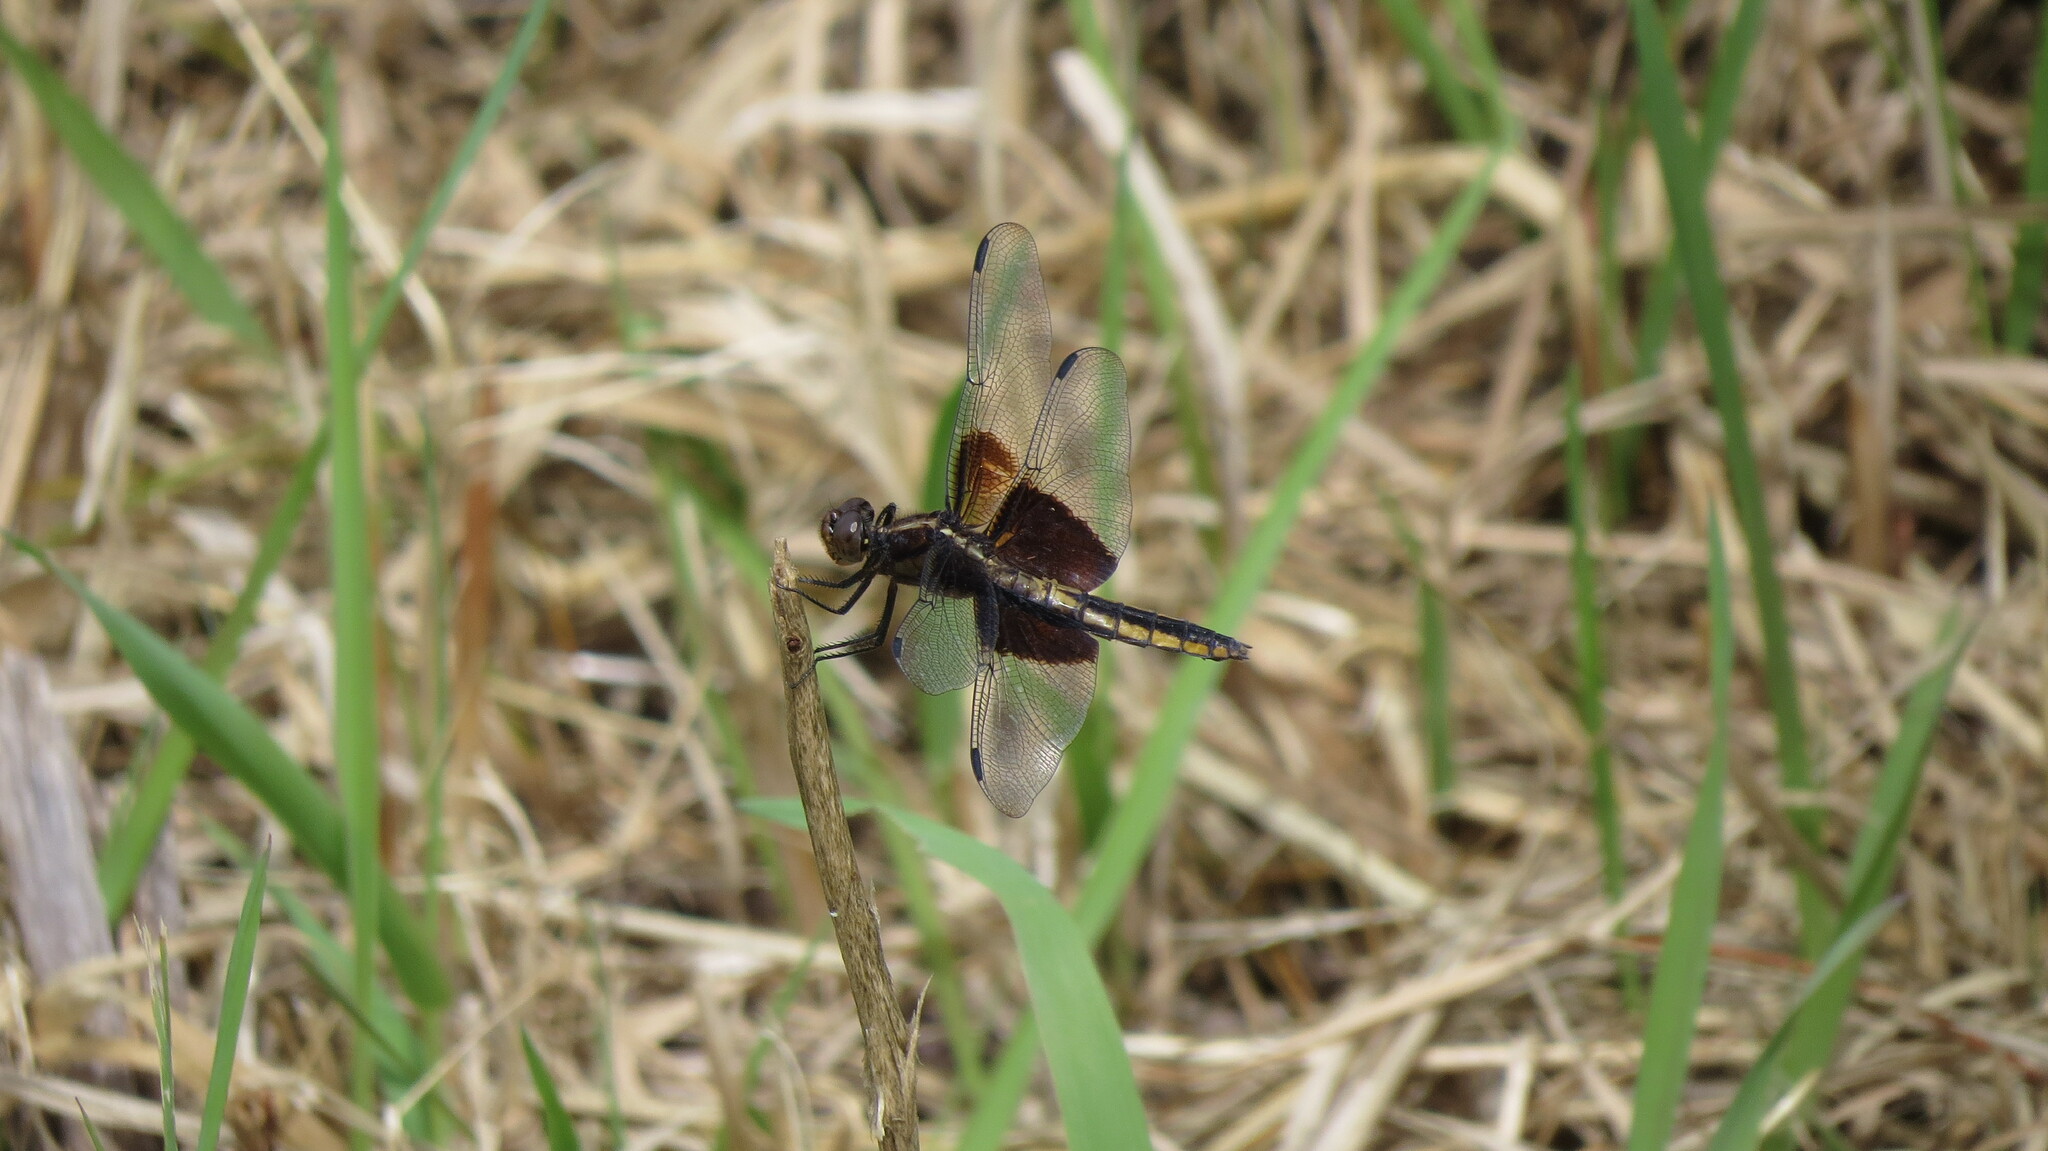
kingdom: Animalia
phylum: Arthropoda
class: Insecta
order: Odonata
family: Libellulidae
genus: Libellula
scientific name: Libellula luctuosa
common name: Widow skimmer
